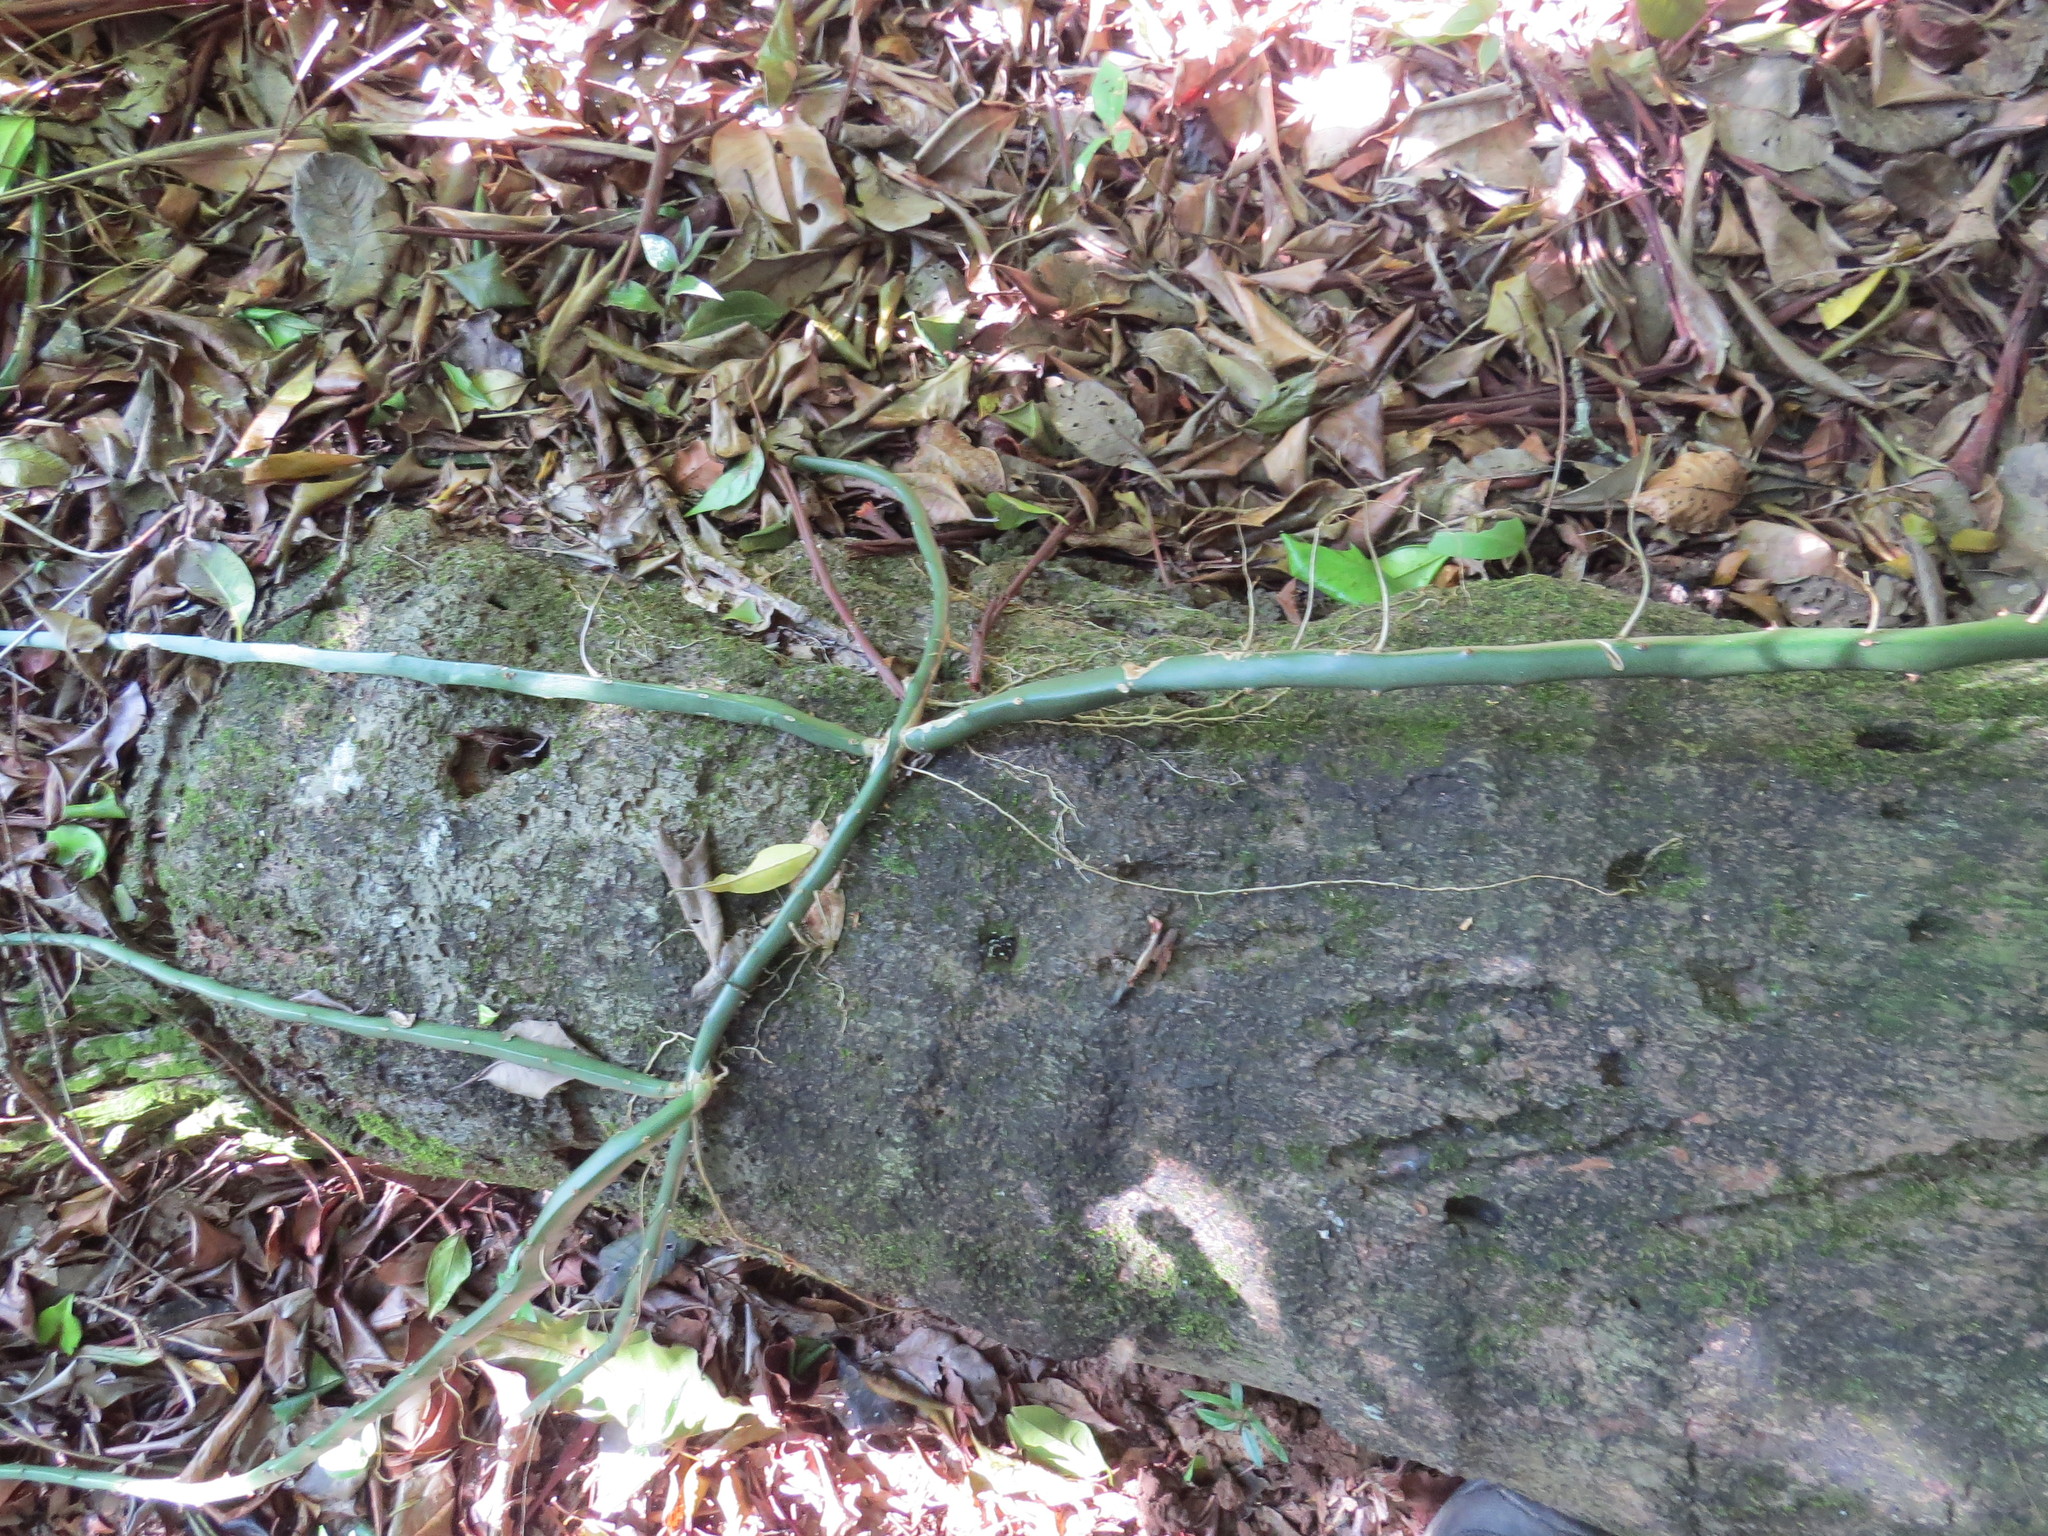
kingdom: Plantae
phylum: Tracheophyta
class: Magnoliopsida
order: Caryophyllales
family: Cactaceae
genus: Selenicereus
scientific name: Selenicereus setaceus
